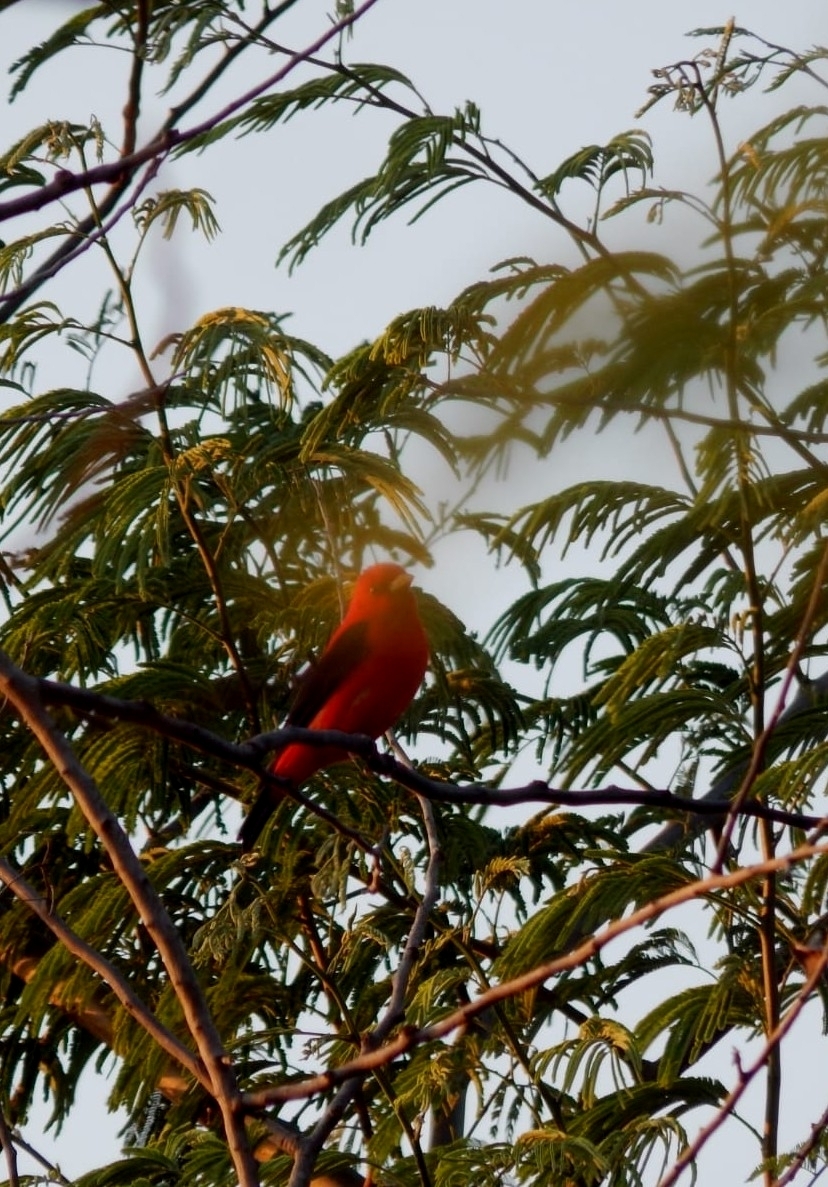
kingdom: Animalia
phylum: Chordata
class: Aves
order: Passeriformes
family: Cardinalidae
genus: Piranga
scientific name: Piranga olivacea
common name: Scarlet tanager
